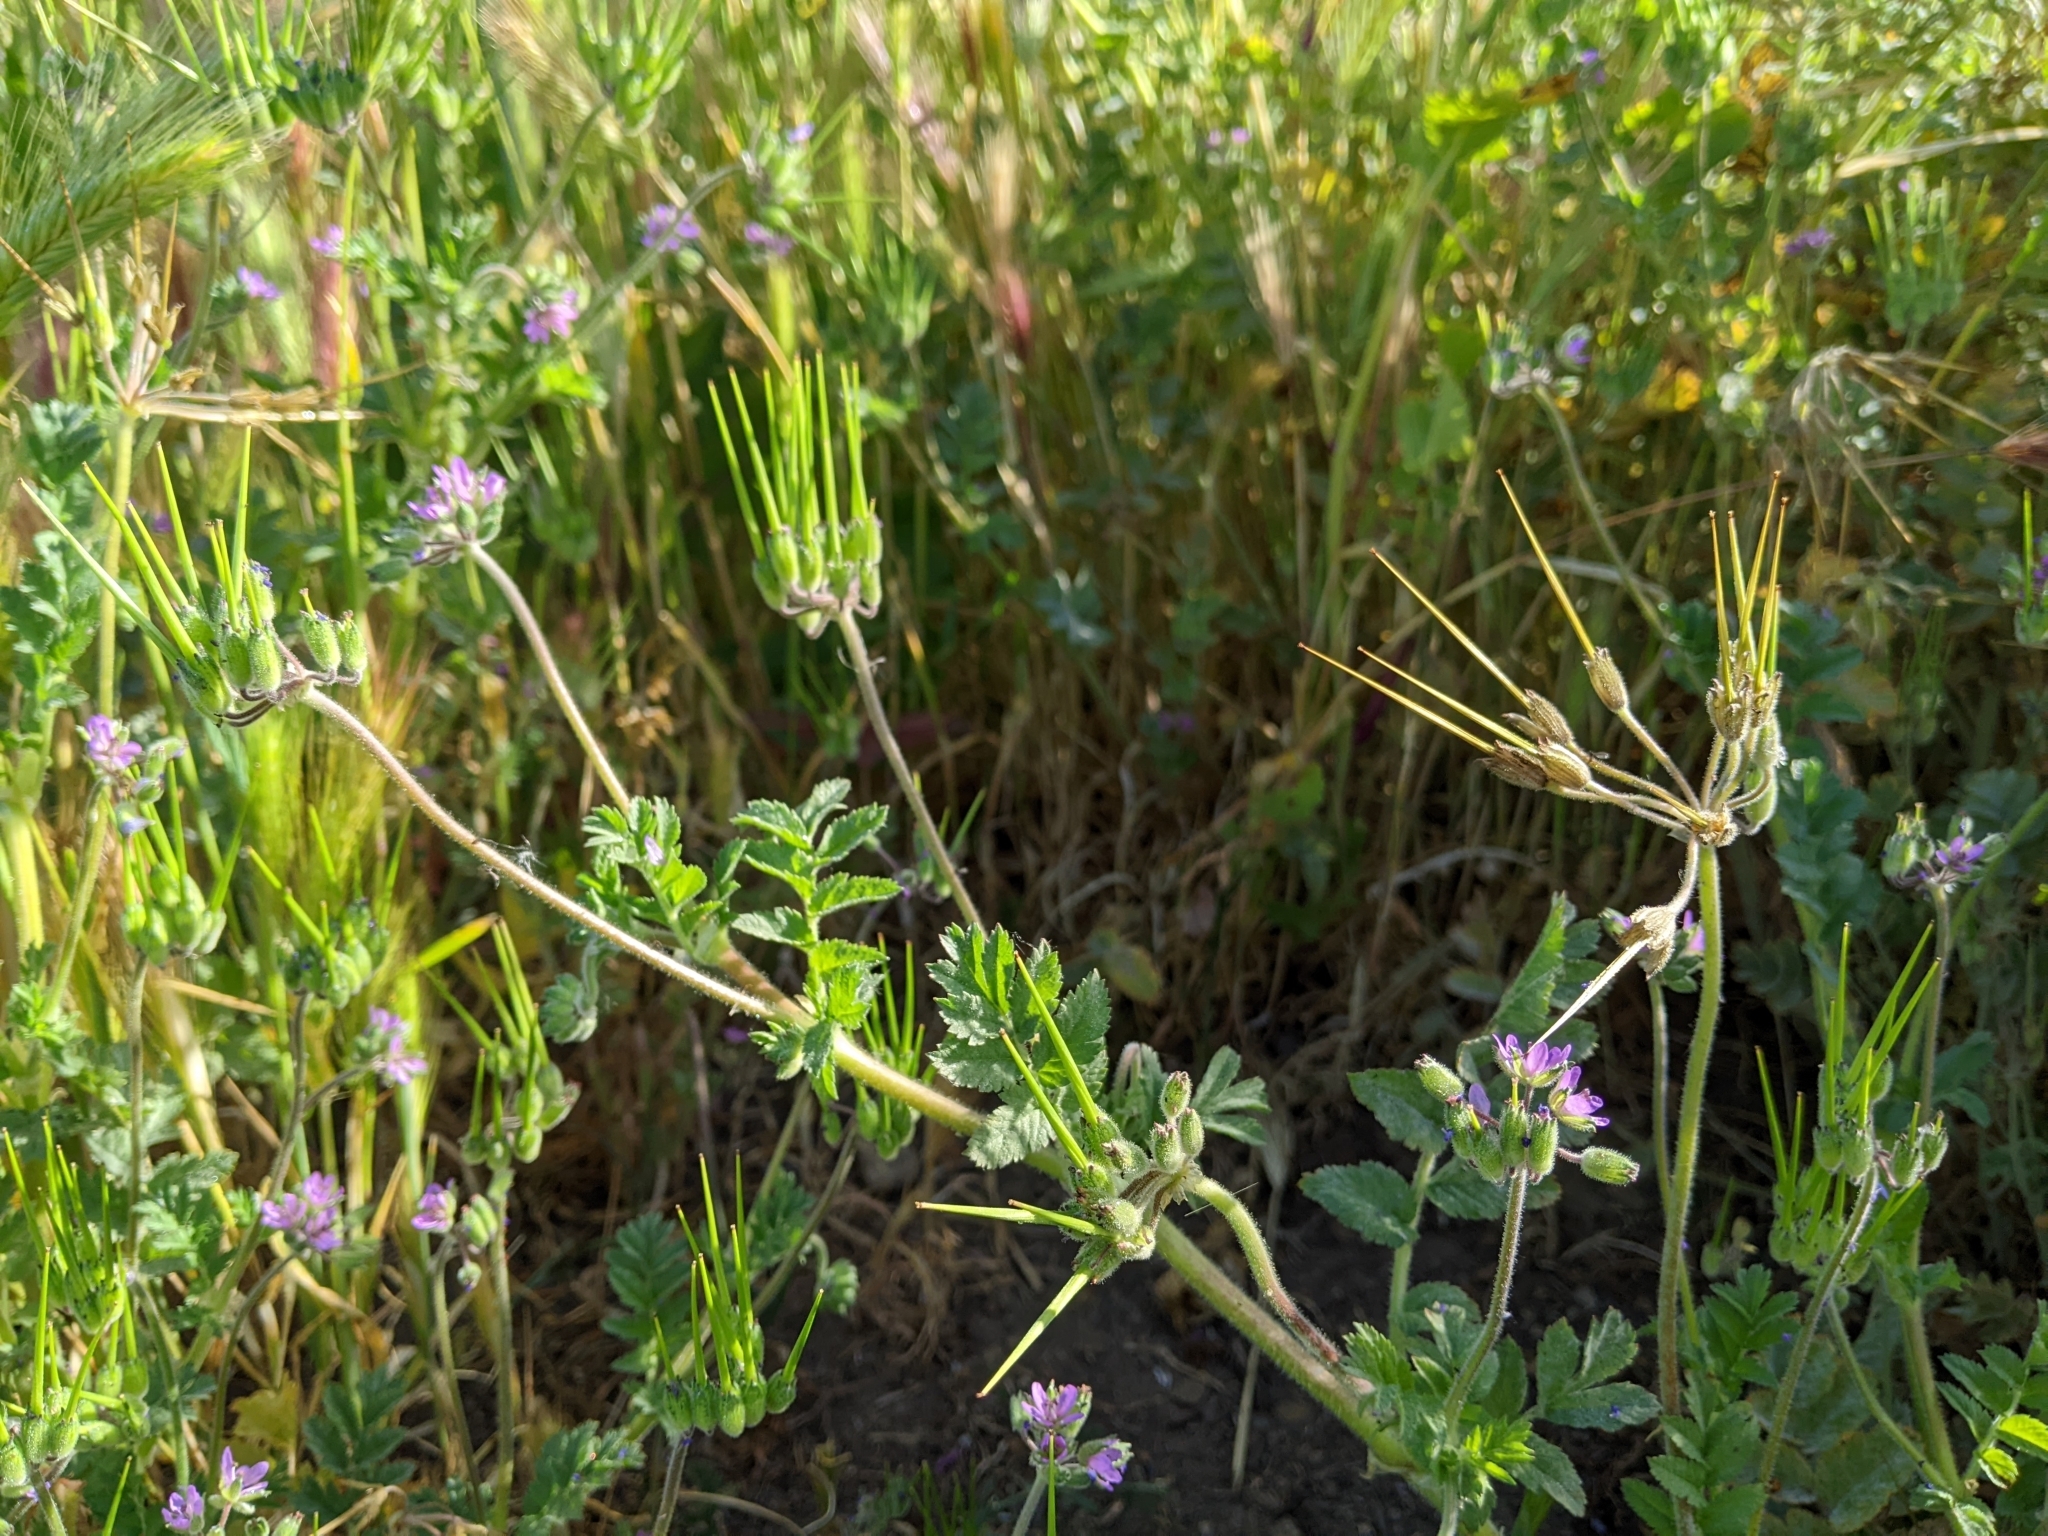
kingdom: Plantae
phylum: Tracheophyta
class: Magnoliopsida
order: Geraniales
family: Geraniaceae
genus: Erodium
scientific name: Erodium moschatum
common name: Musk stork's-bill
